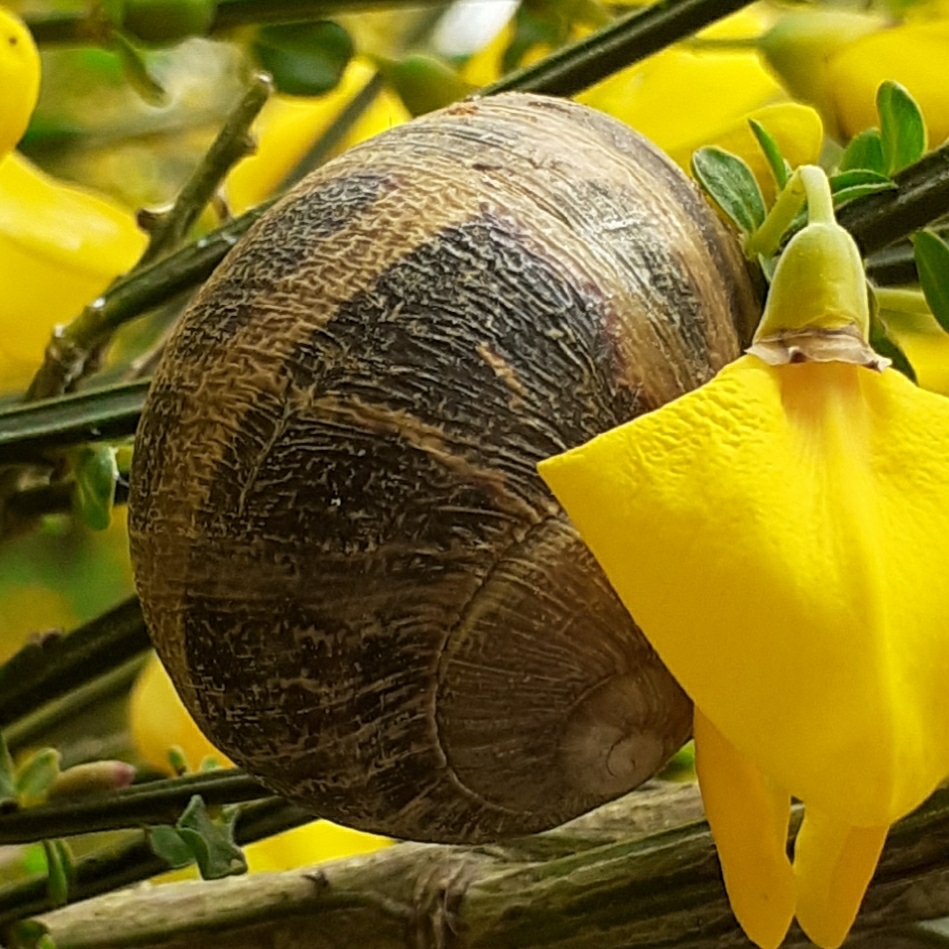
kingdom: Animalia
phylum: Mollusca
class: Gastropoda
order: Stylommatophora
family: Helicidae
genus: Cornu
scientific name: Cornu aspersum
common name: Brown garden snail
